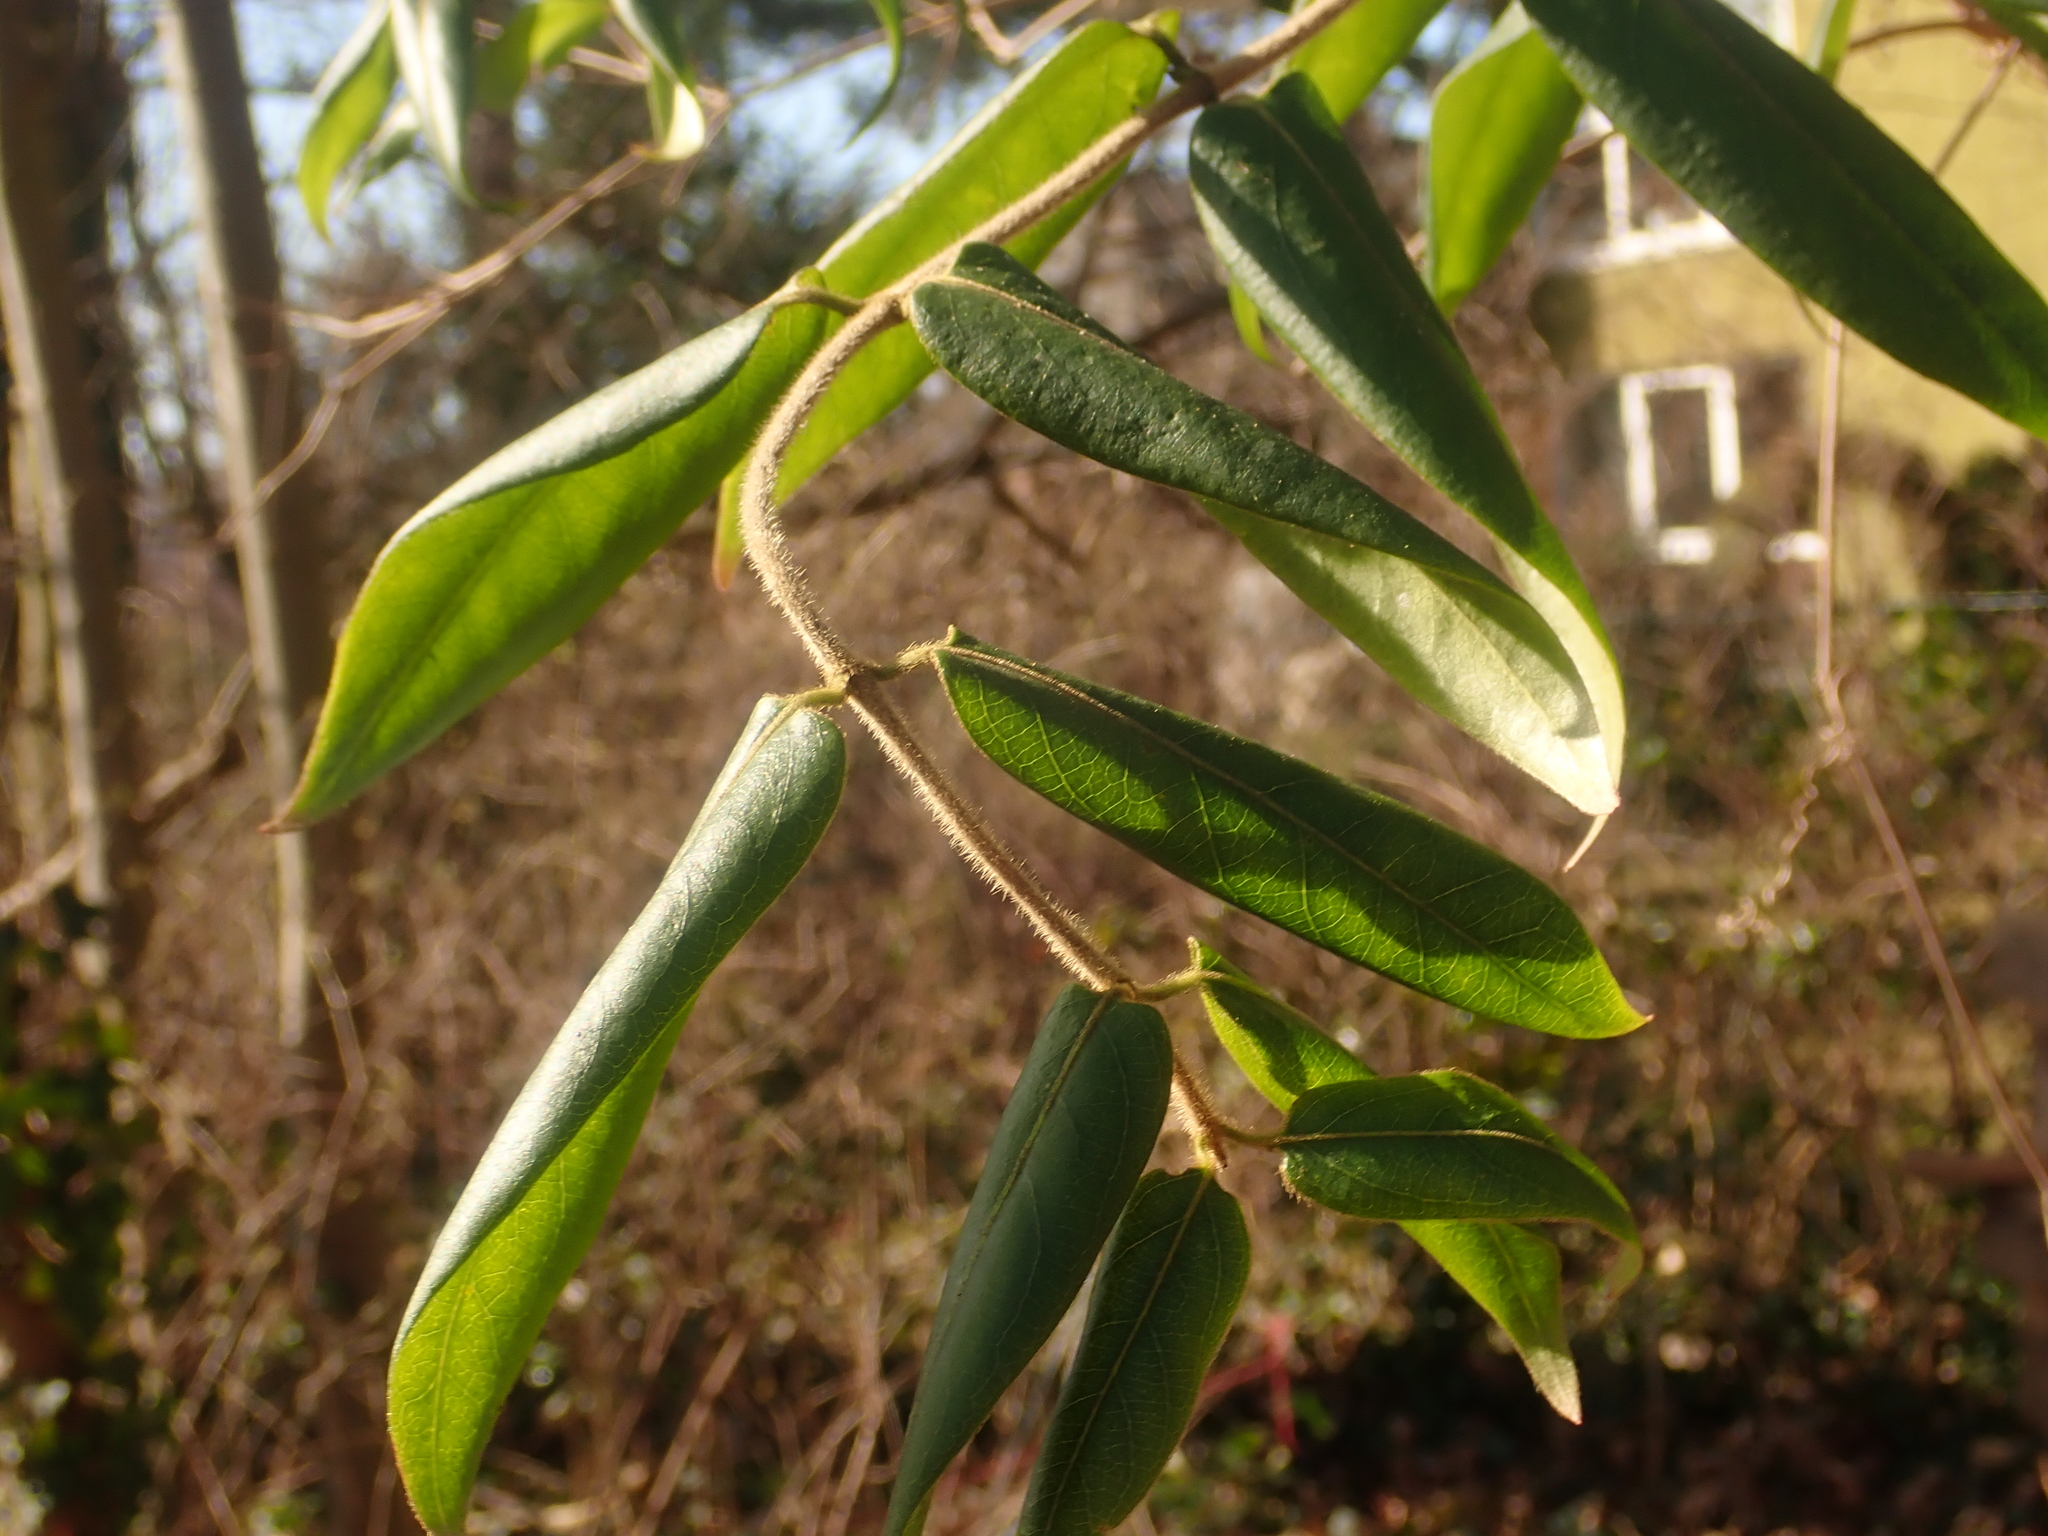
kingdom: Plantae
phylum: Tracheophyta
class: Magnoliopsida
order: Dipsacales
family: Caprifoliaceae
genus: Lonicera
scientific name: Lonicera acuminata
